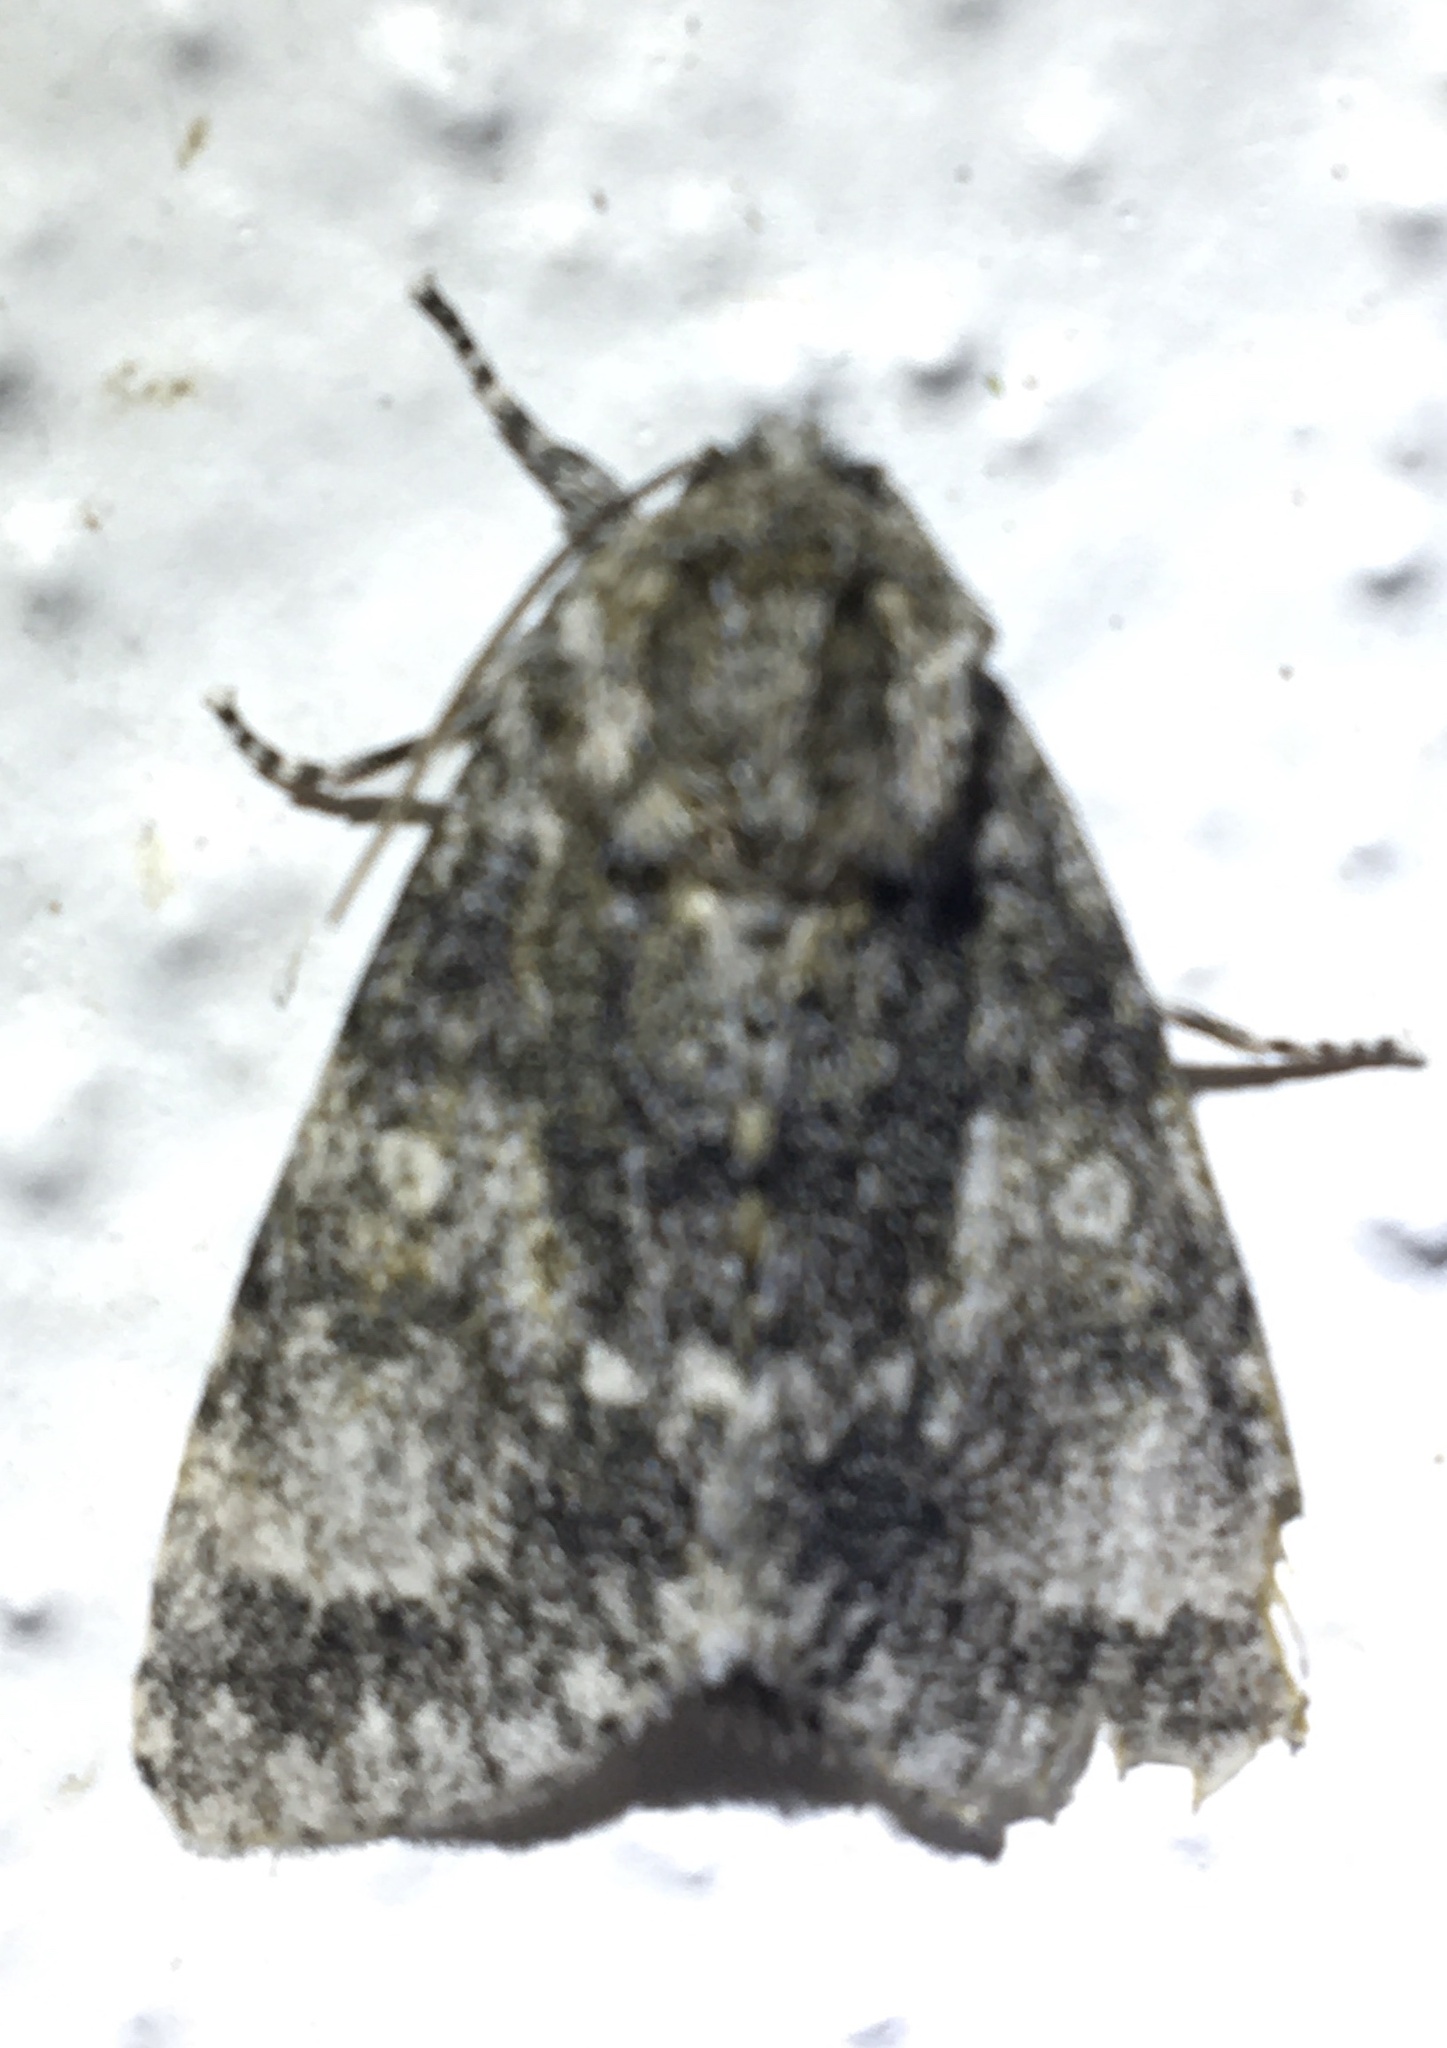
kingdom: Animalia
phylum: Arthropoda
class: Insecta
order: Lepidoptera
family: Noctuidae
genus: Acronicta
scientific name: Acronicta megacephala
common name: Poplar grey
